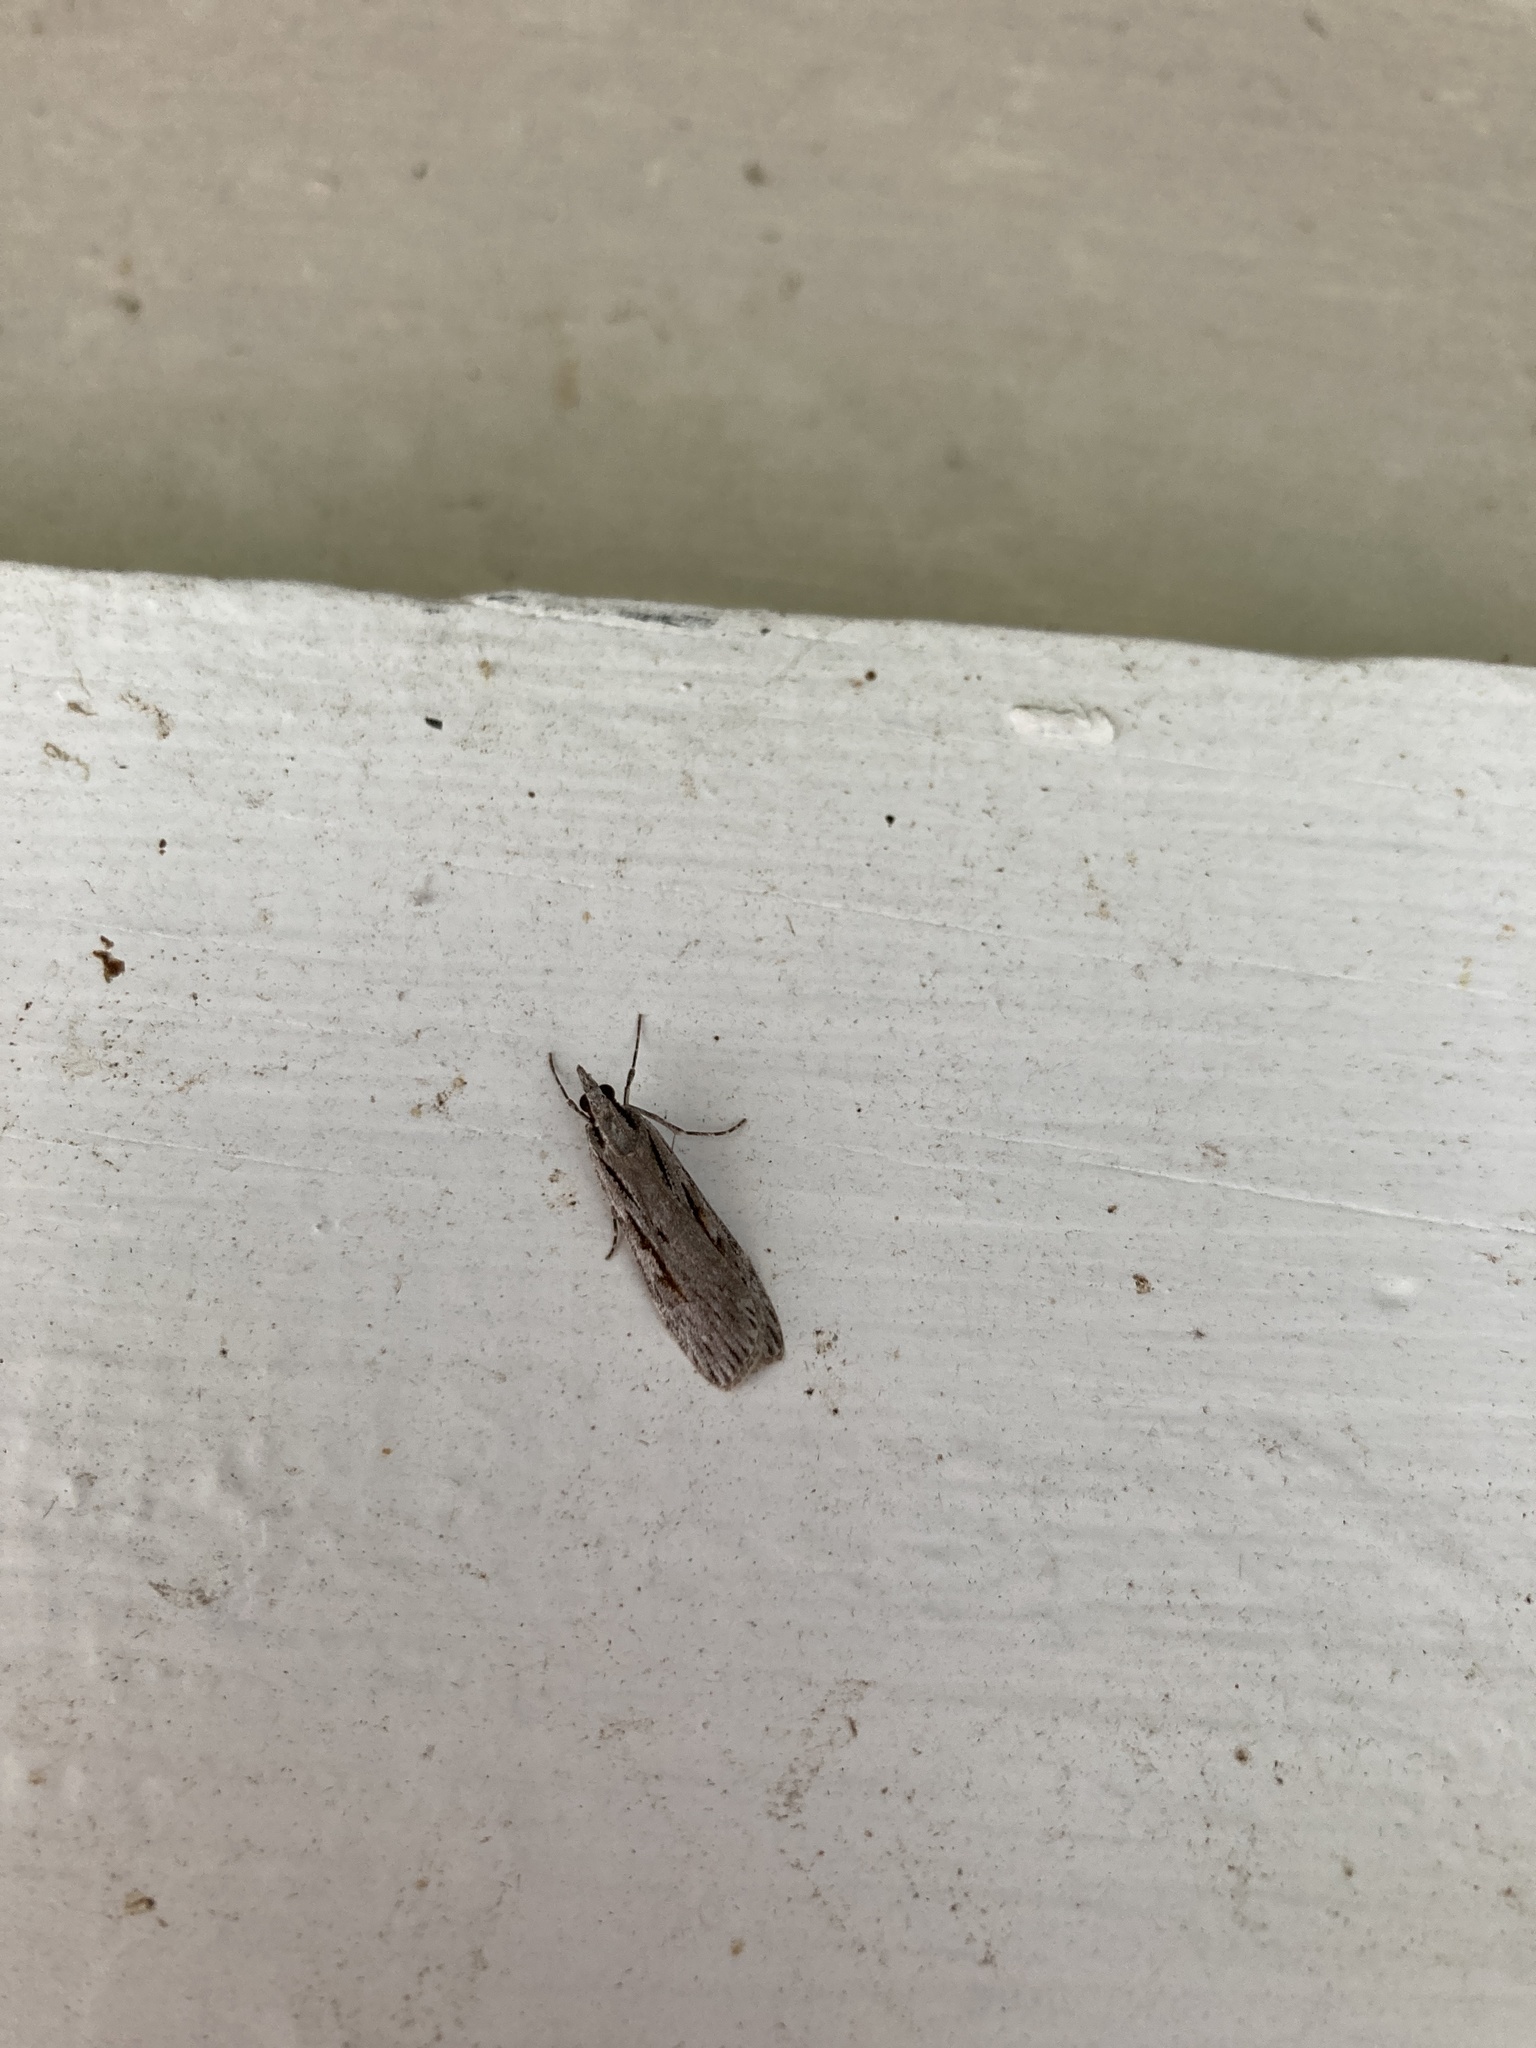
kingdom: Animalia
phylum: Arthropoda
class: Insecta
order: Lepidoptera
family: Crambidae
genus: Scoparia
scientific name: Scoparia indistinctalis
